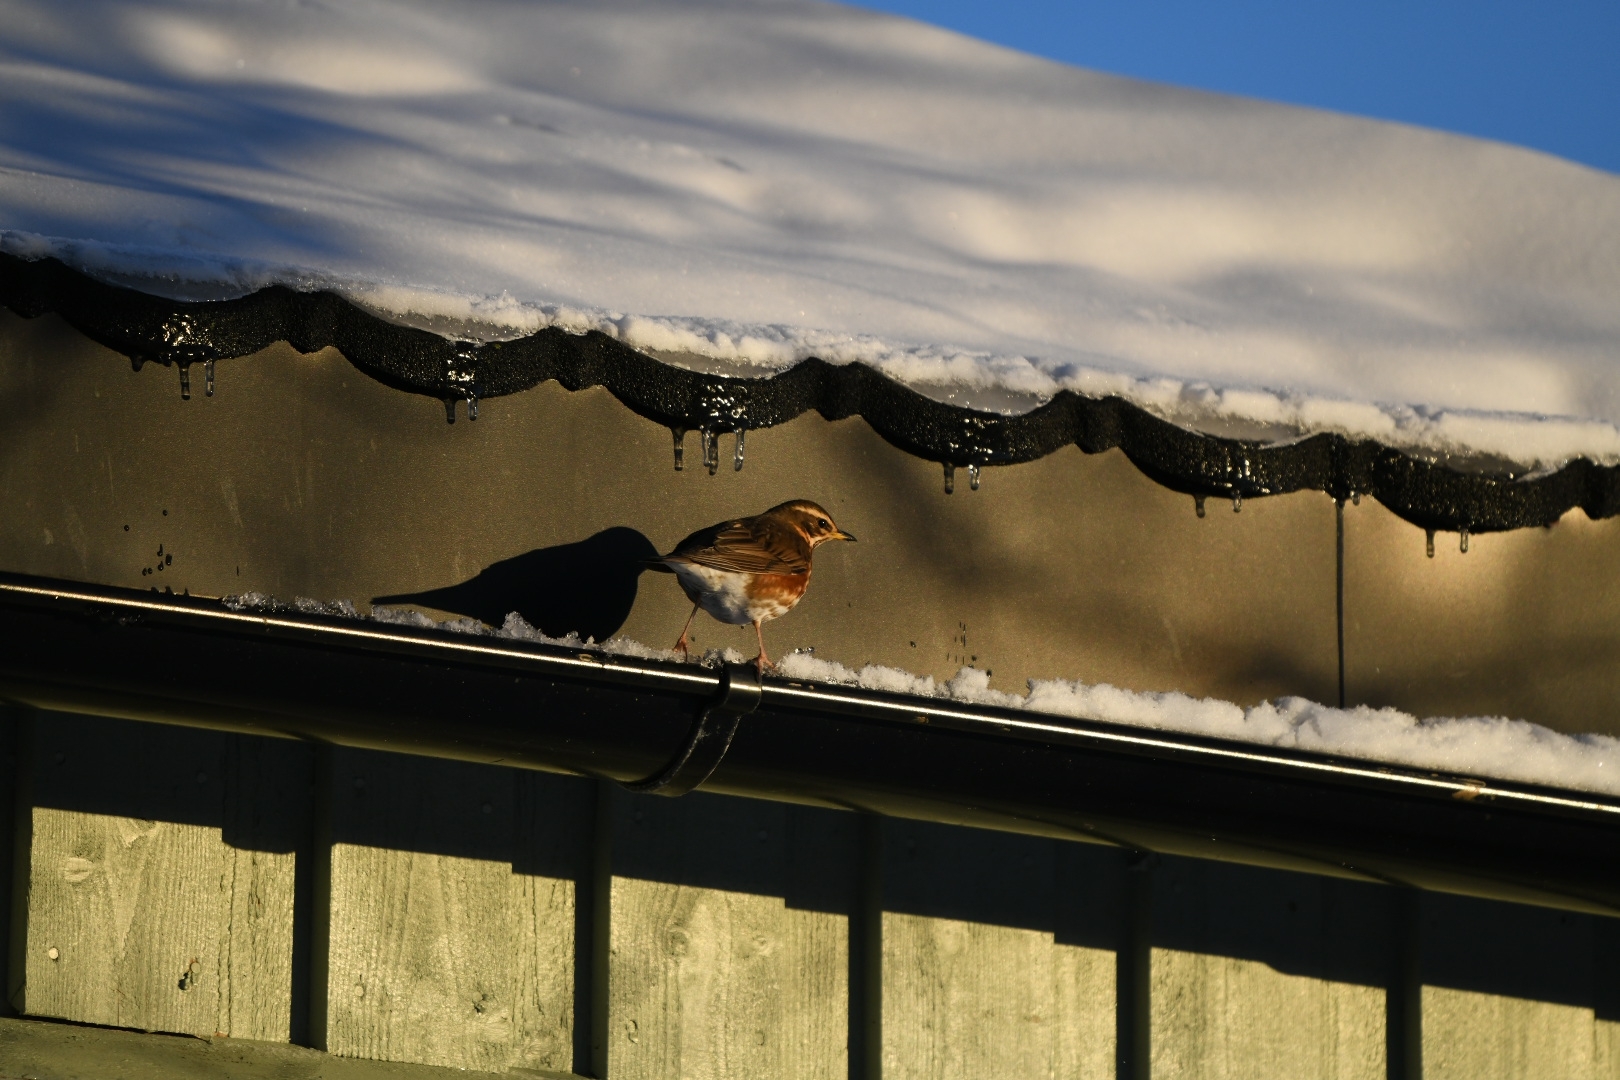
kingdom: Animalia
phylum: Chordata
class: Aves
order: Passeriformes
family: Turdidae
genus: Turdus
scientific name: Turdus iliacus
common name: Redwing
